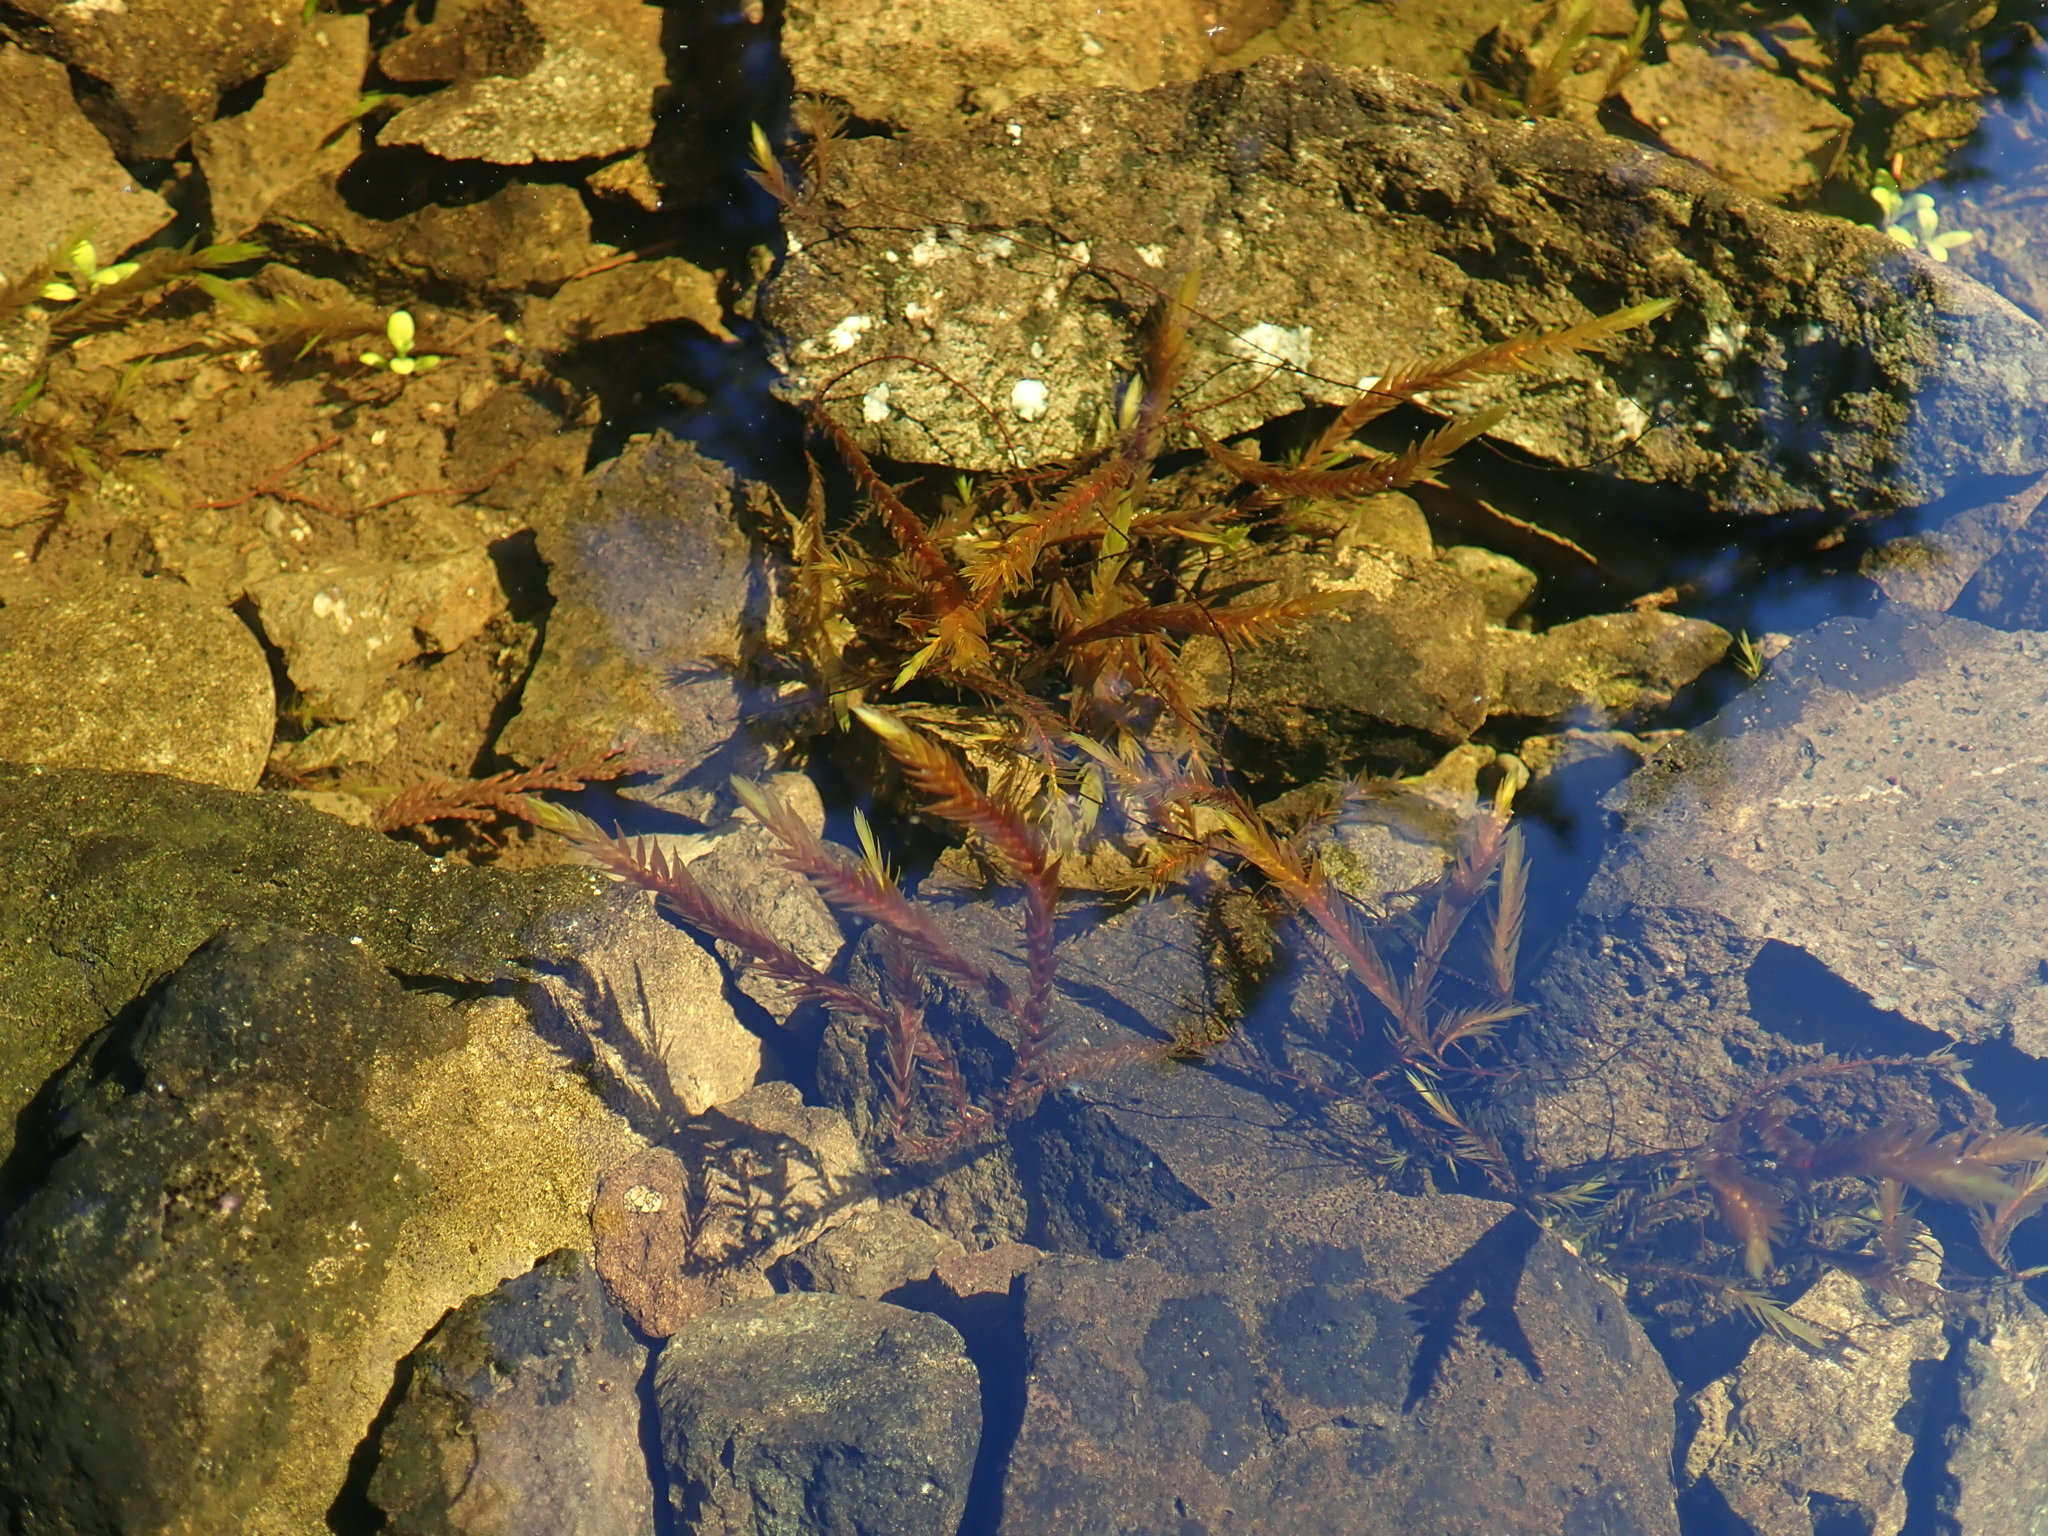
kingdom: Plantae
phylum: Bryophyta
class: Bryopsida
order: Hypnales
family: Fontinalaceae
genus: Fontinalis
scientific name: Fontinalis antipyretica
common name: Greater water-moss
